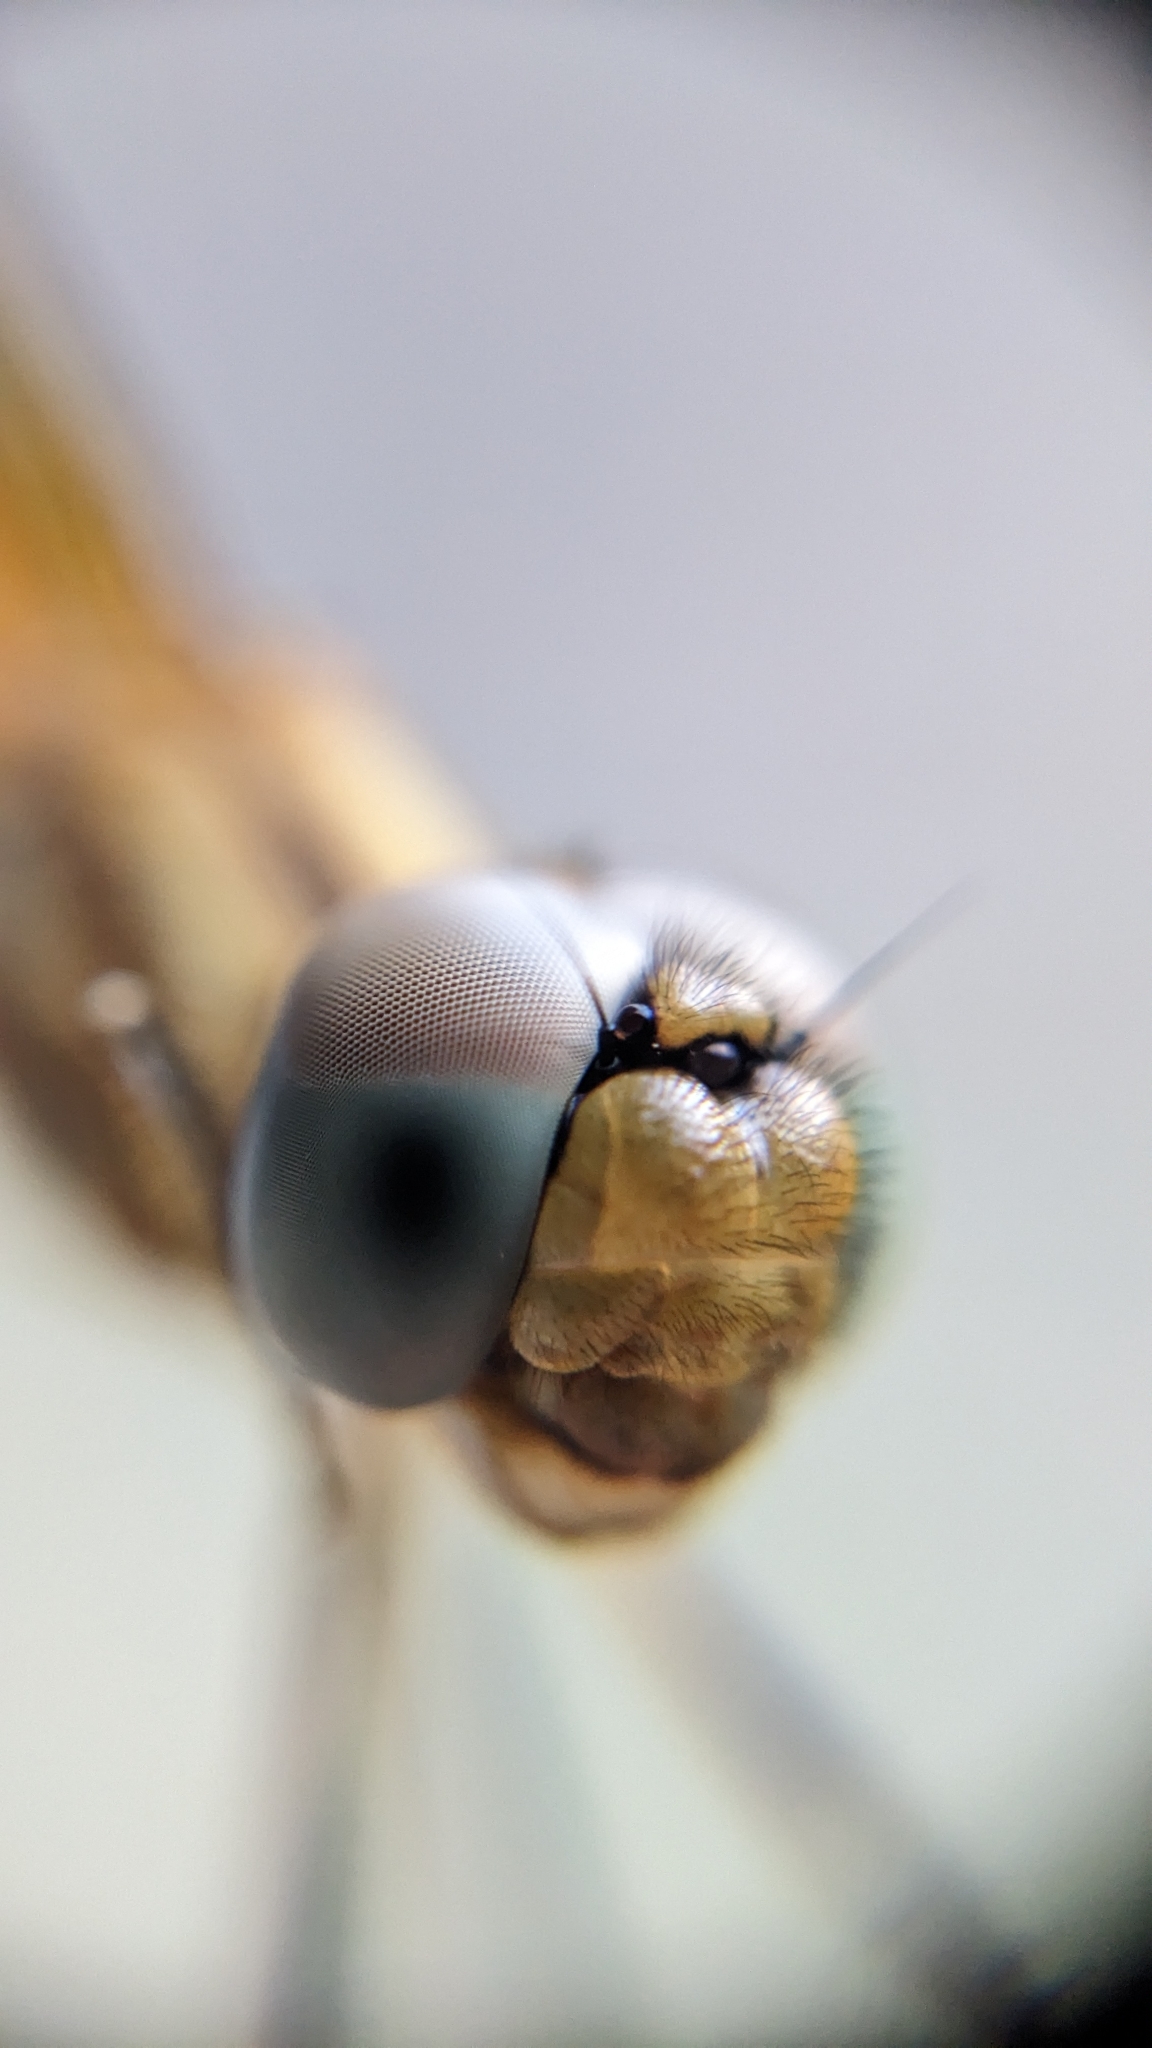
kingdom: Animalia
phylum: Arthropoda
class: Insecta
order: Odonata
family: Libellulidae
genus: Trithemis
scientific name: Trithemis aurora
